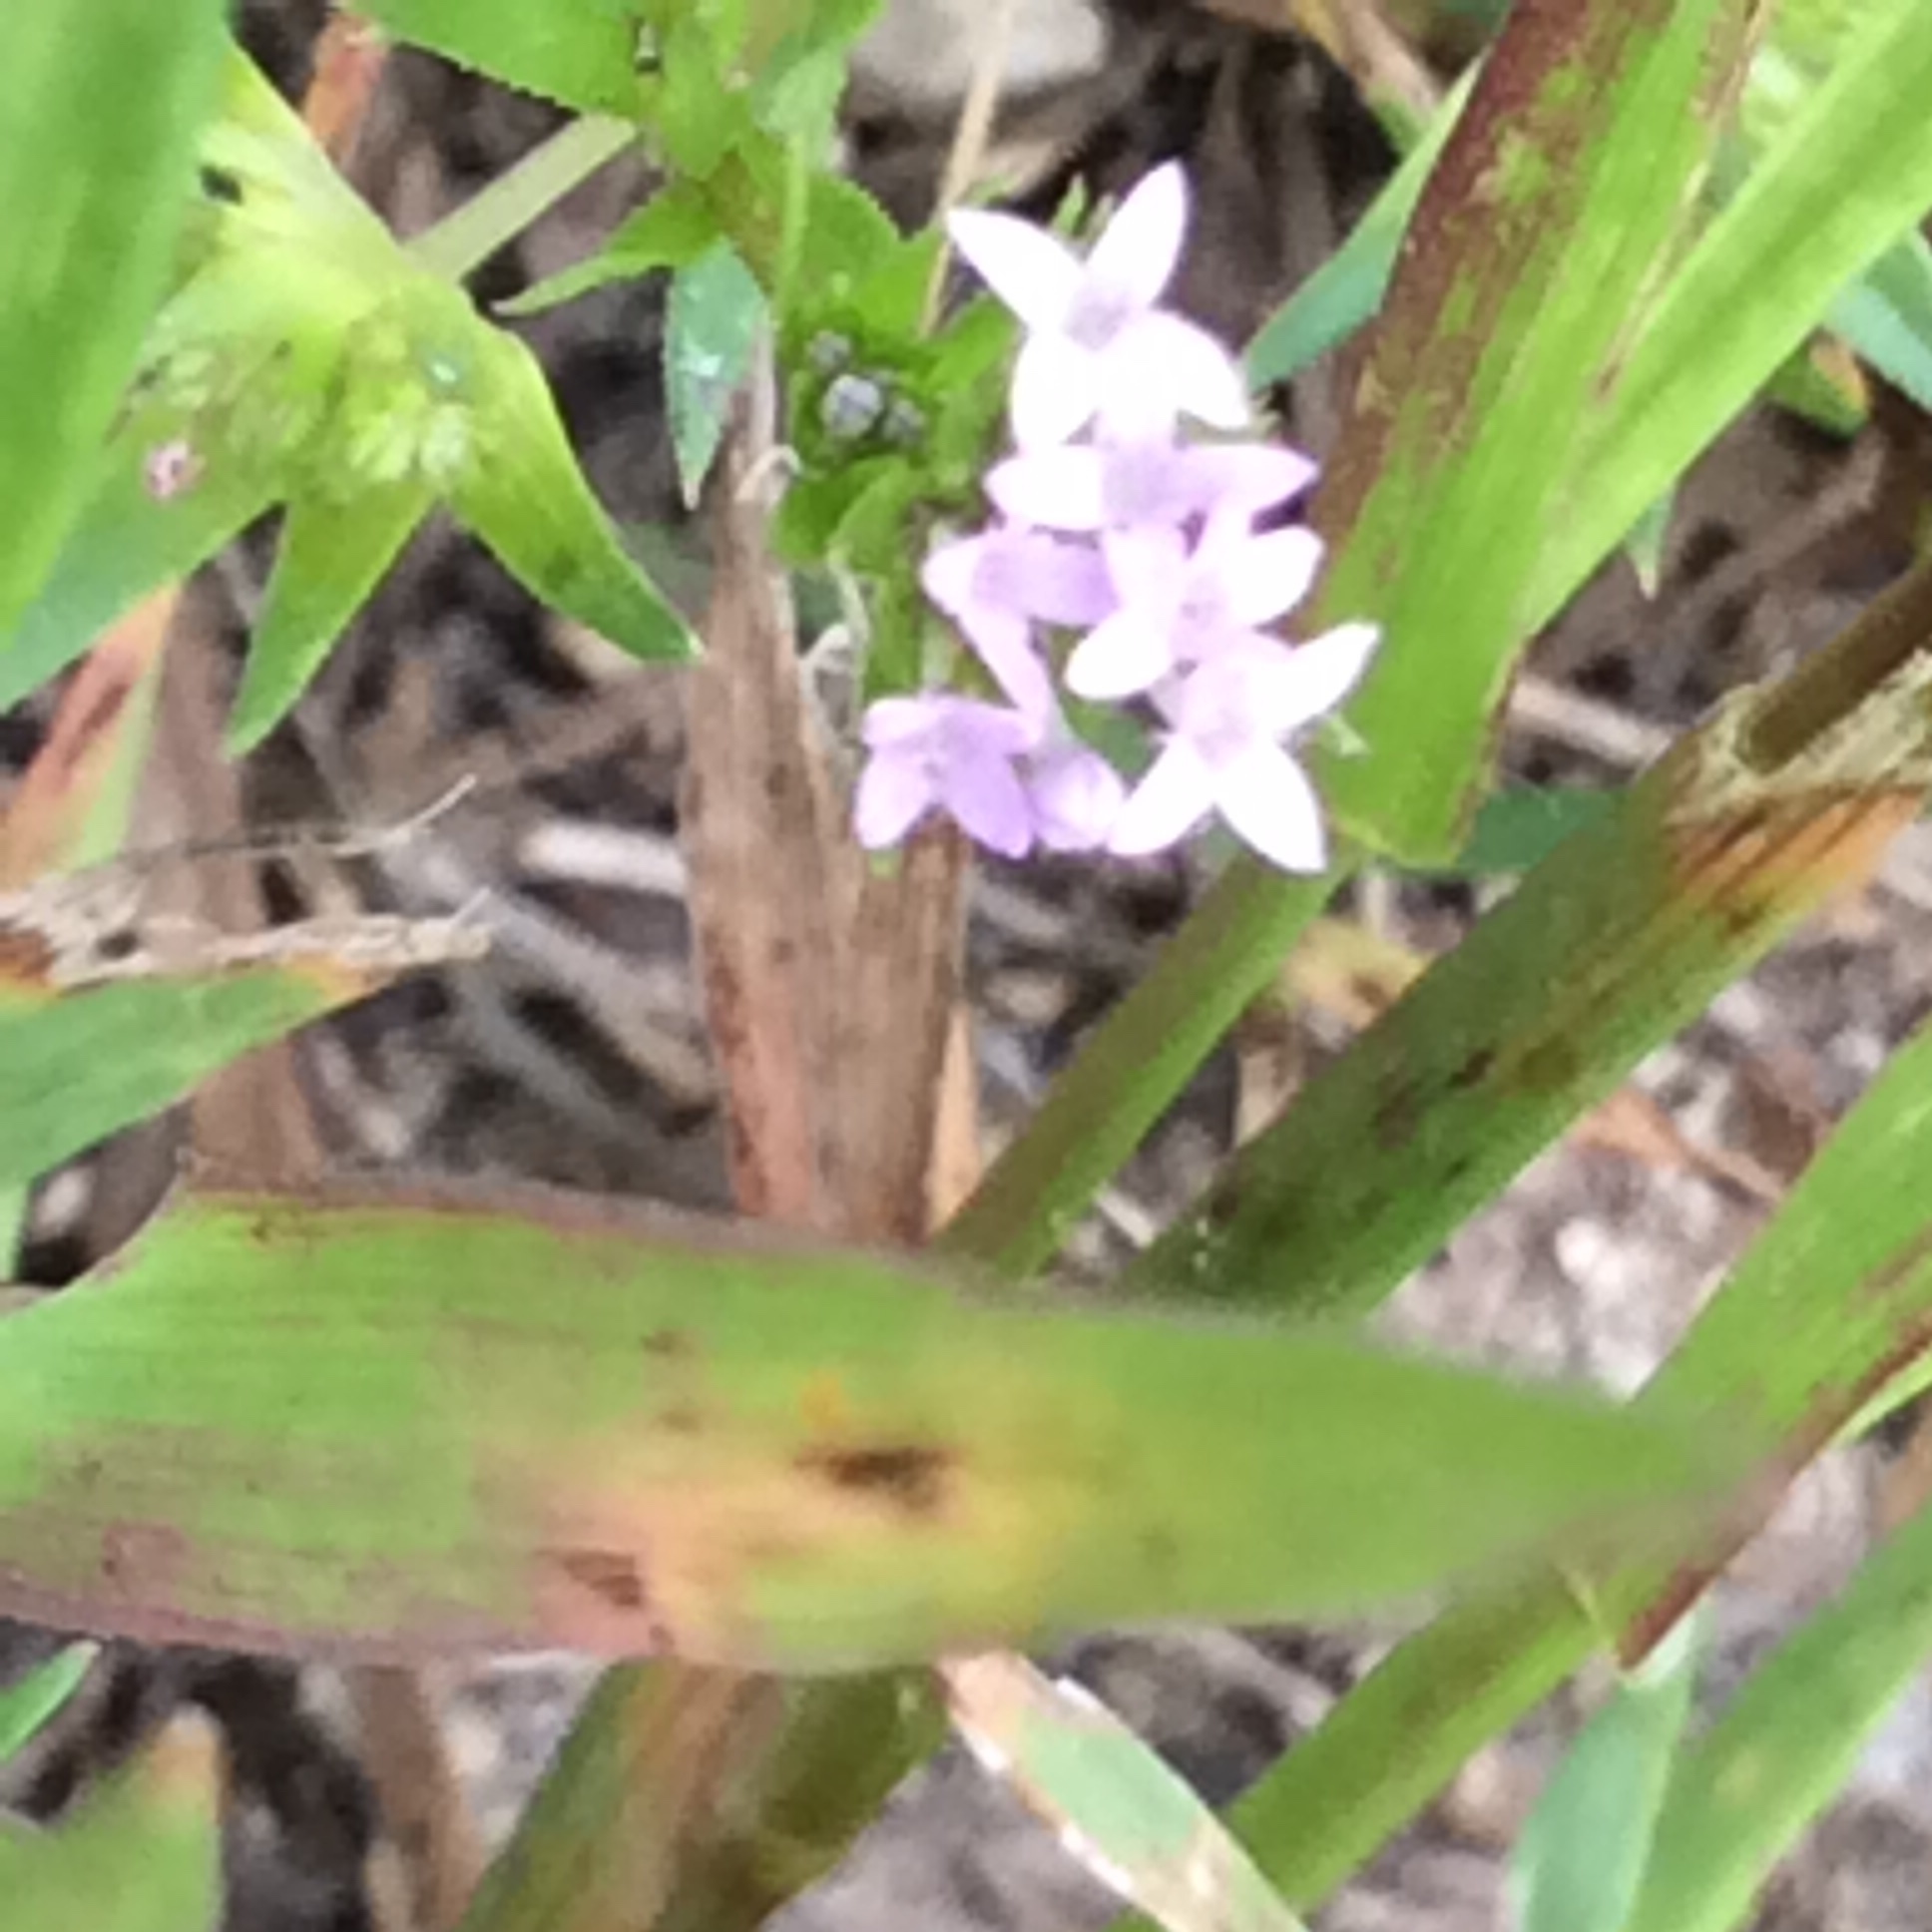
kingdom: Plantae
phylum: Tracheophyta
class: Magnoliopsida
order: Gentianales
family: Rubiaceae
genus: Sherardia
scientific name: Sherardia arvensis
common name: Field madder
